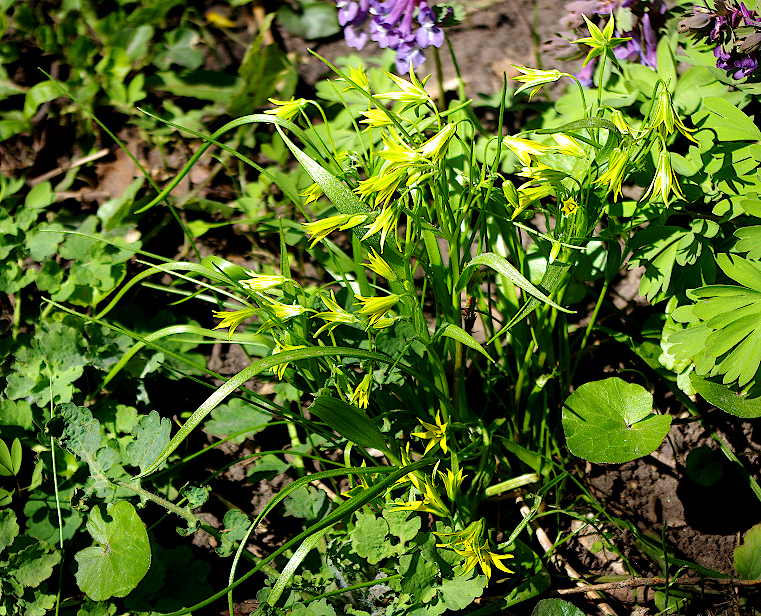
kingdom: Plantae
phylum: Tracheophyta
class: Liliopsida
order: Liliales
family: Liliaceae
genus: Gagea
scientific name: Gagea minima
